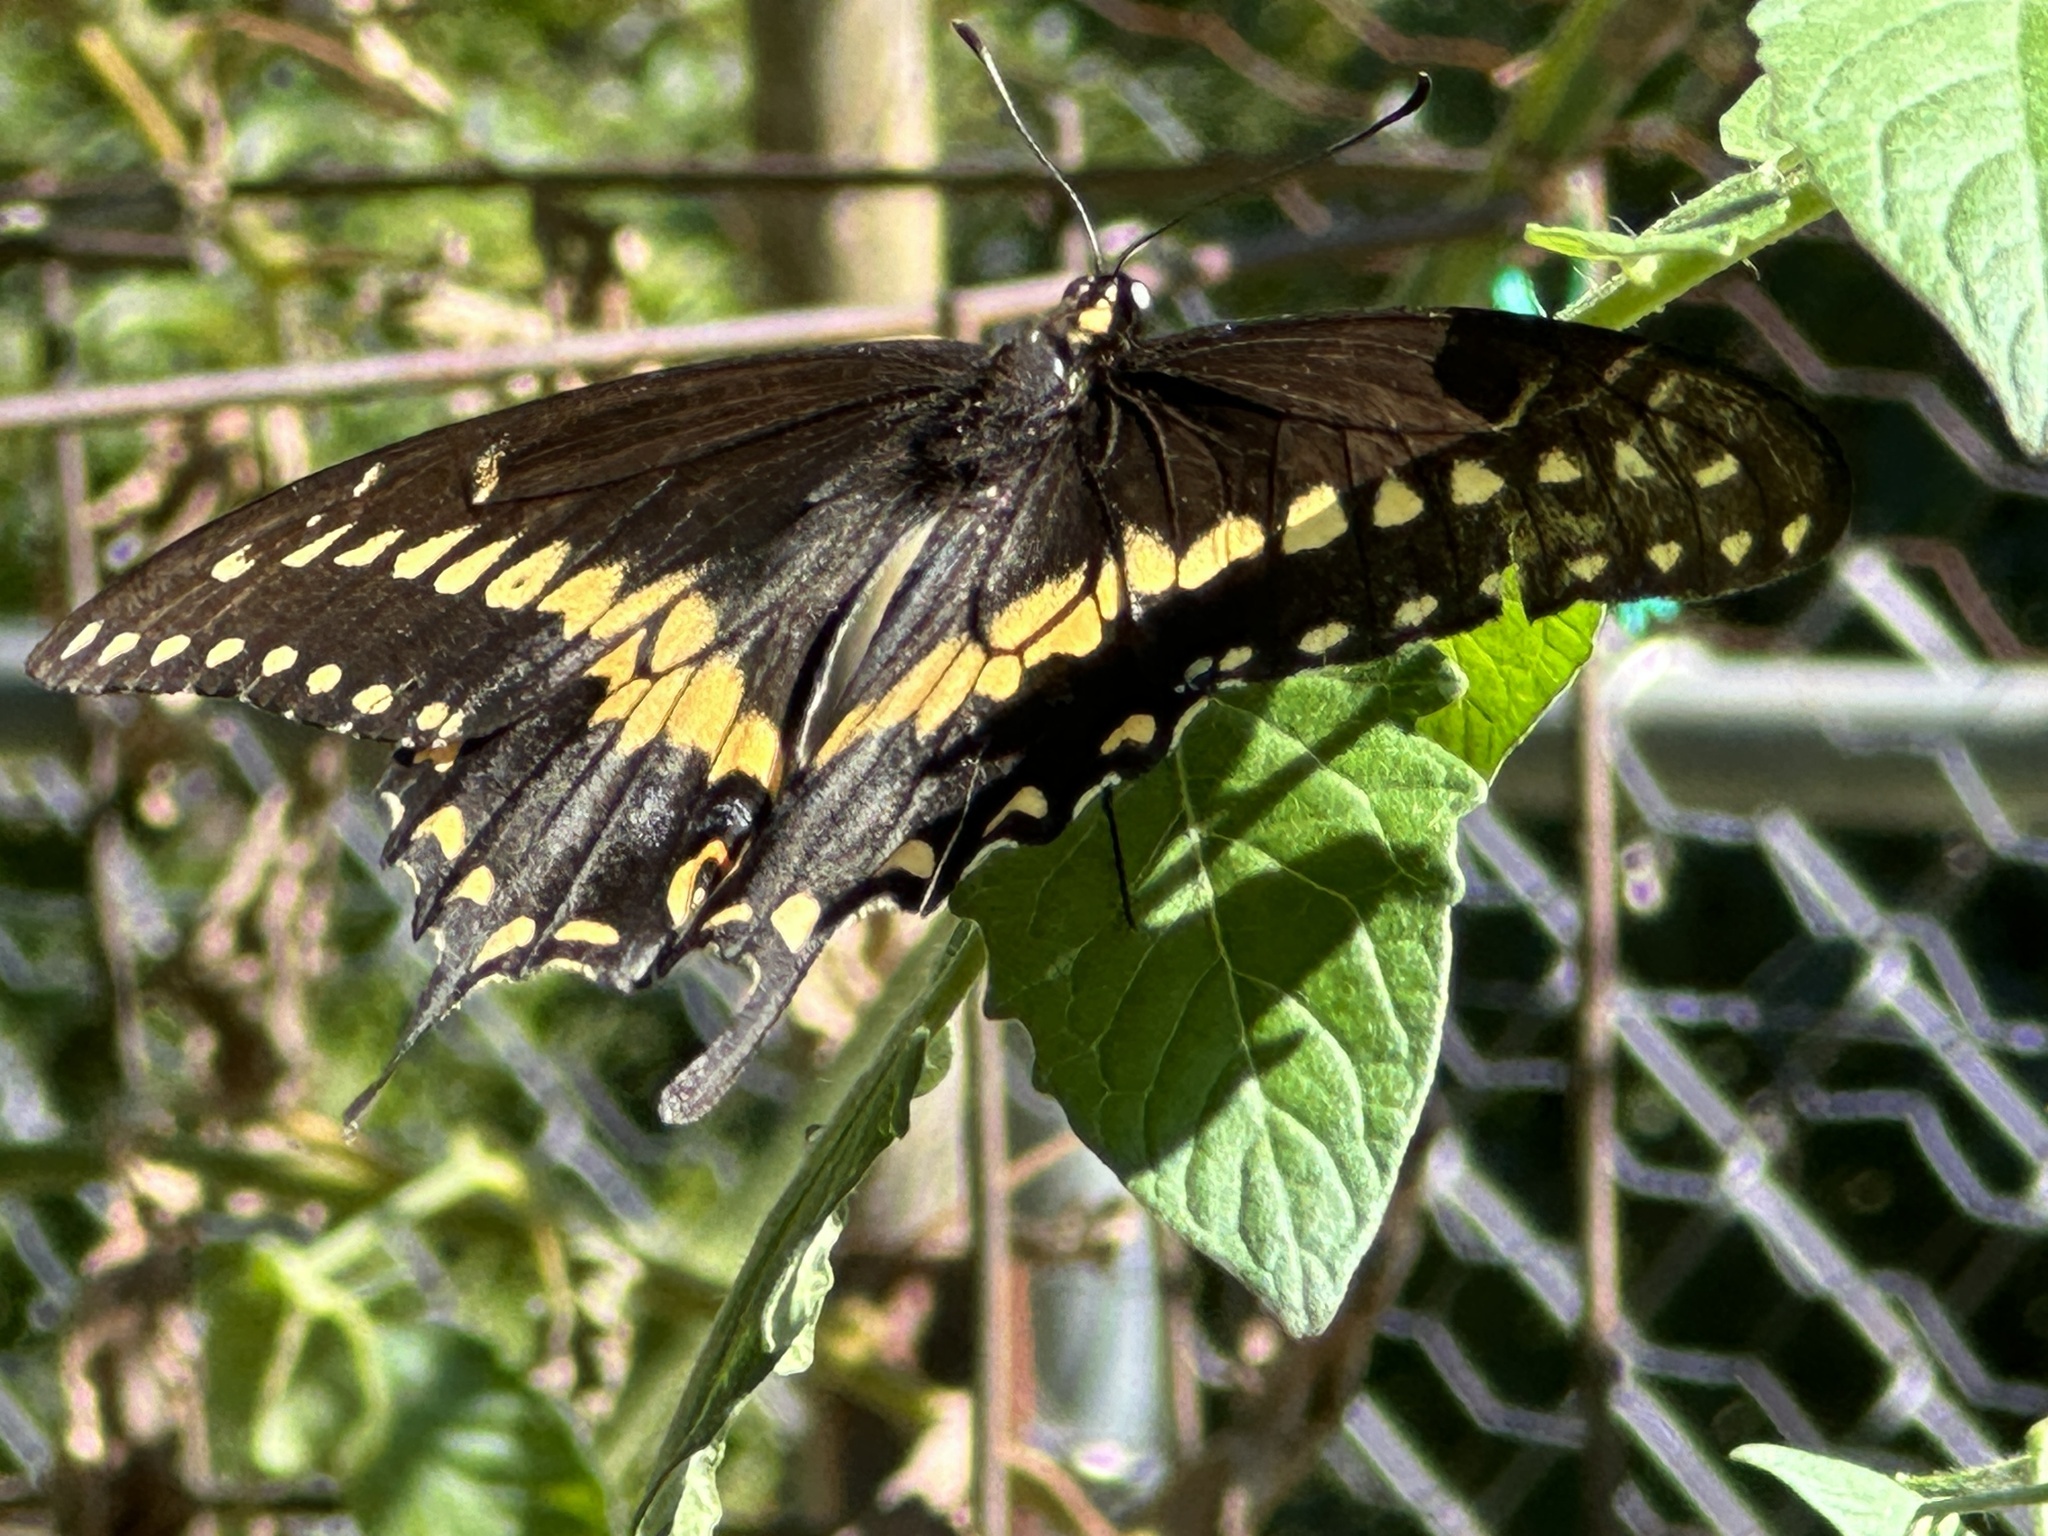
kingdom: Animalia
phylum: Arthropoda
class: Insecta
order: Lepidoptera
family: Papilionidae
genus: Papilio
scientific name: Papilio polyxenes
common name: Black swallowtail
